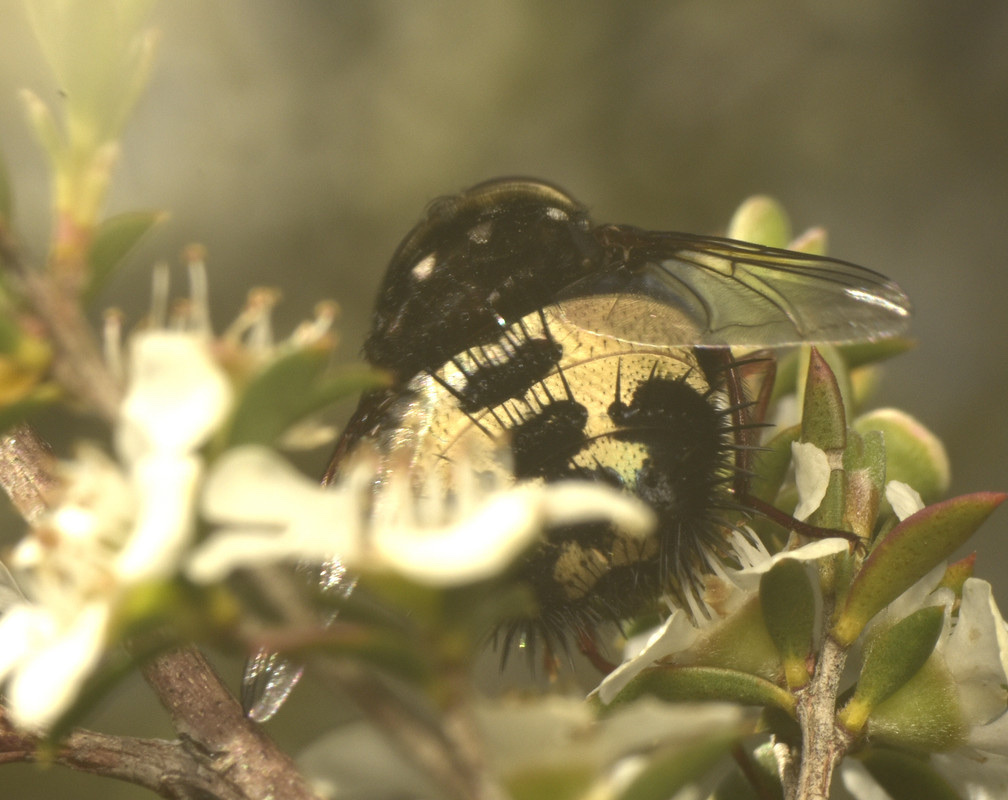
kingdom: Animalia
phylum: Arthropoda
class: Insecta
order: Diptera
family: Tachinidae
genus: Formosia
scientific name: Formosia speciosa
